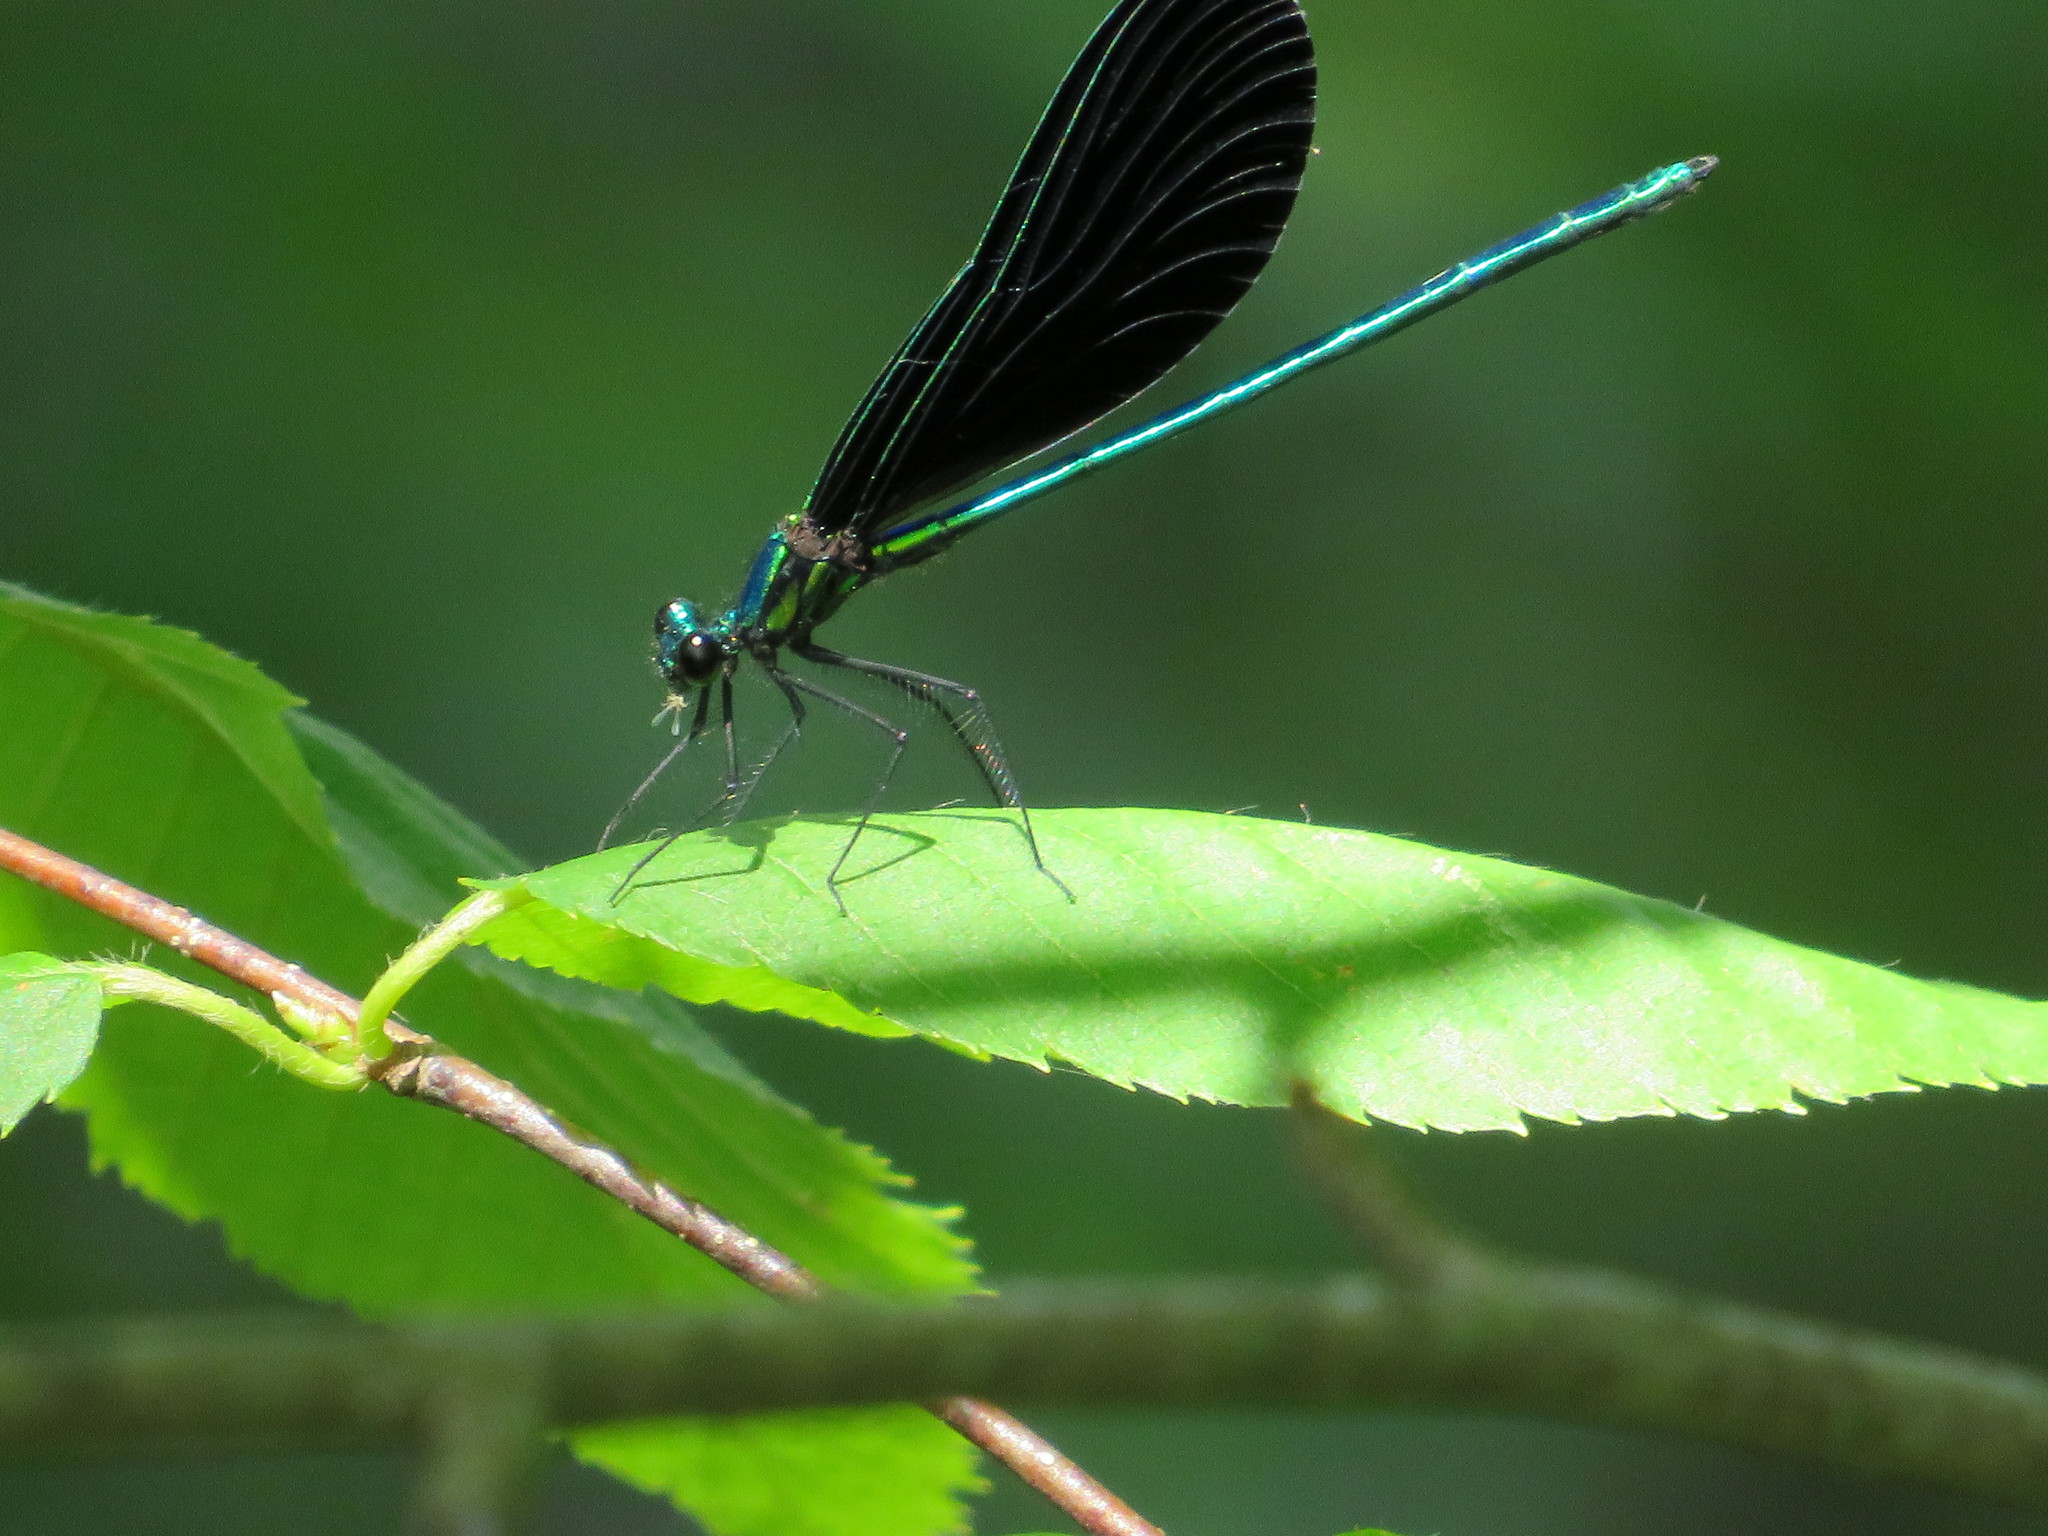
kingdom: Animalia
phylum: Arthropoda
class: Insecta
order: Odonata
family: Calopterygidae
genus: Calopteryx
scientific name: Calopteryx maculata
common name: Ebony jewelwing
